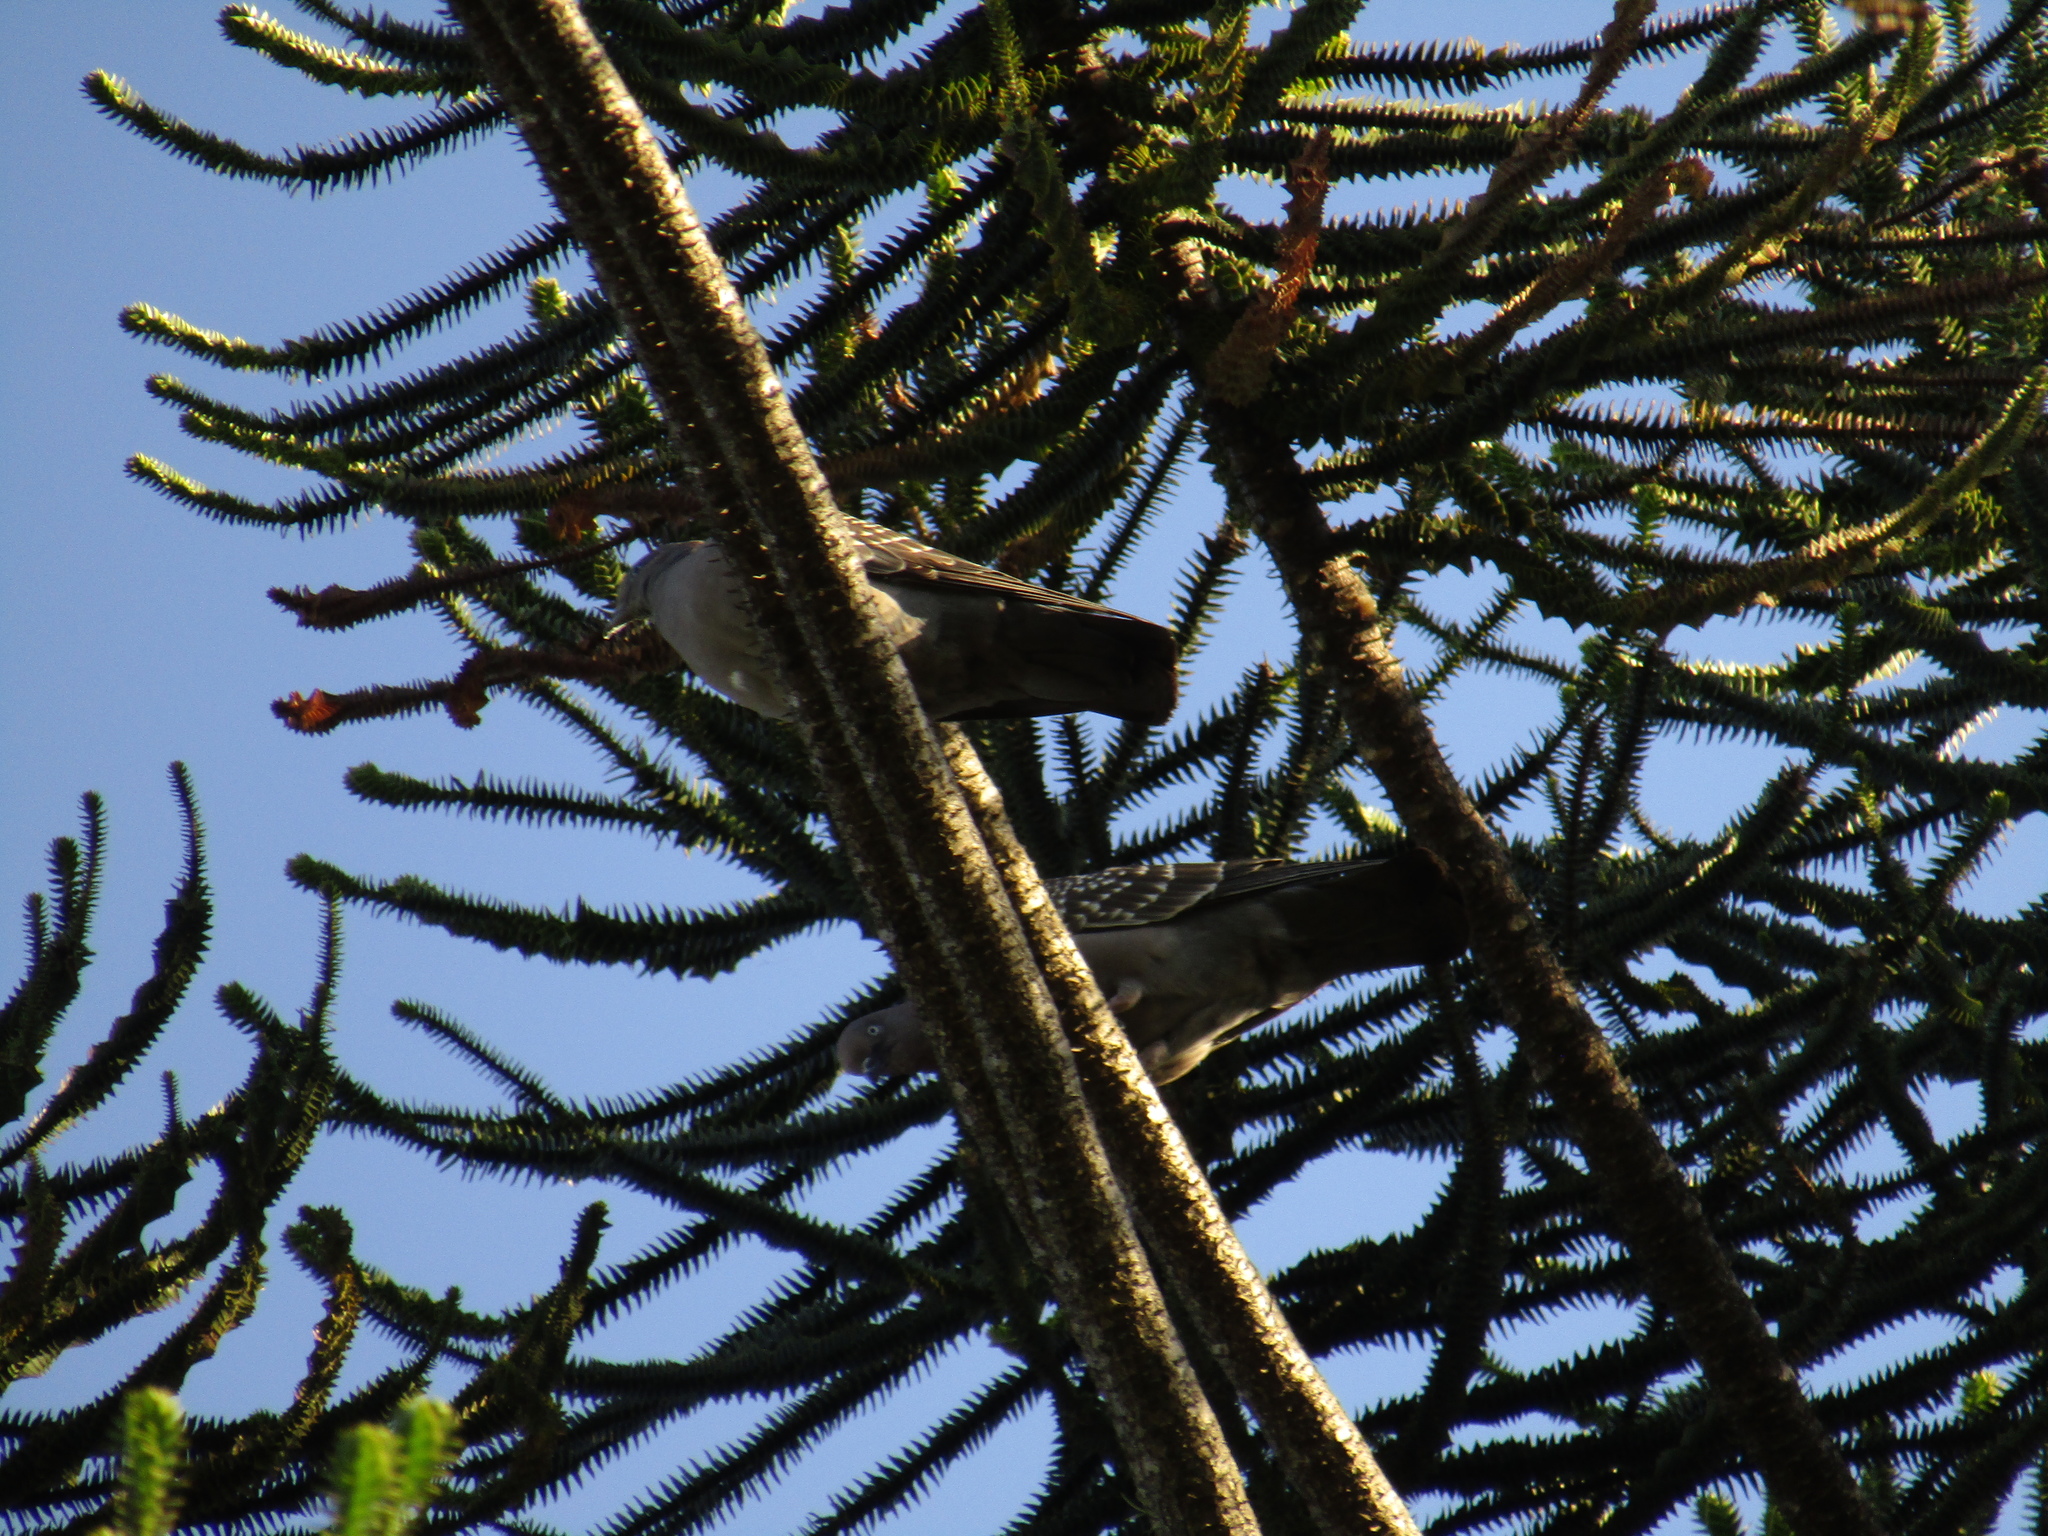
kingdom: Animalia
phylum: Chordata
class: Aves
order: Columbiformes
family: Columbidae
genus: Patagioenas
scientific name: Patagioenas maculosa
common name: Spot-winged pigeon
